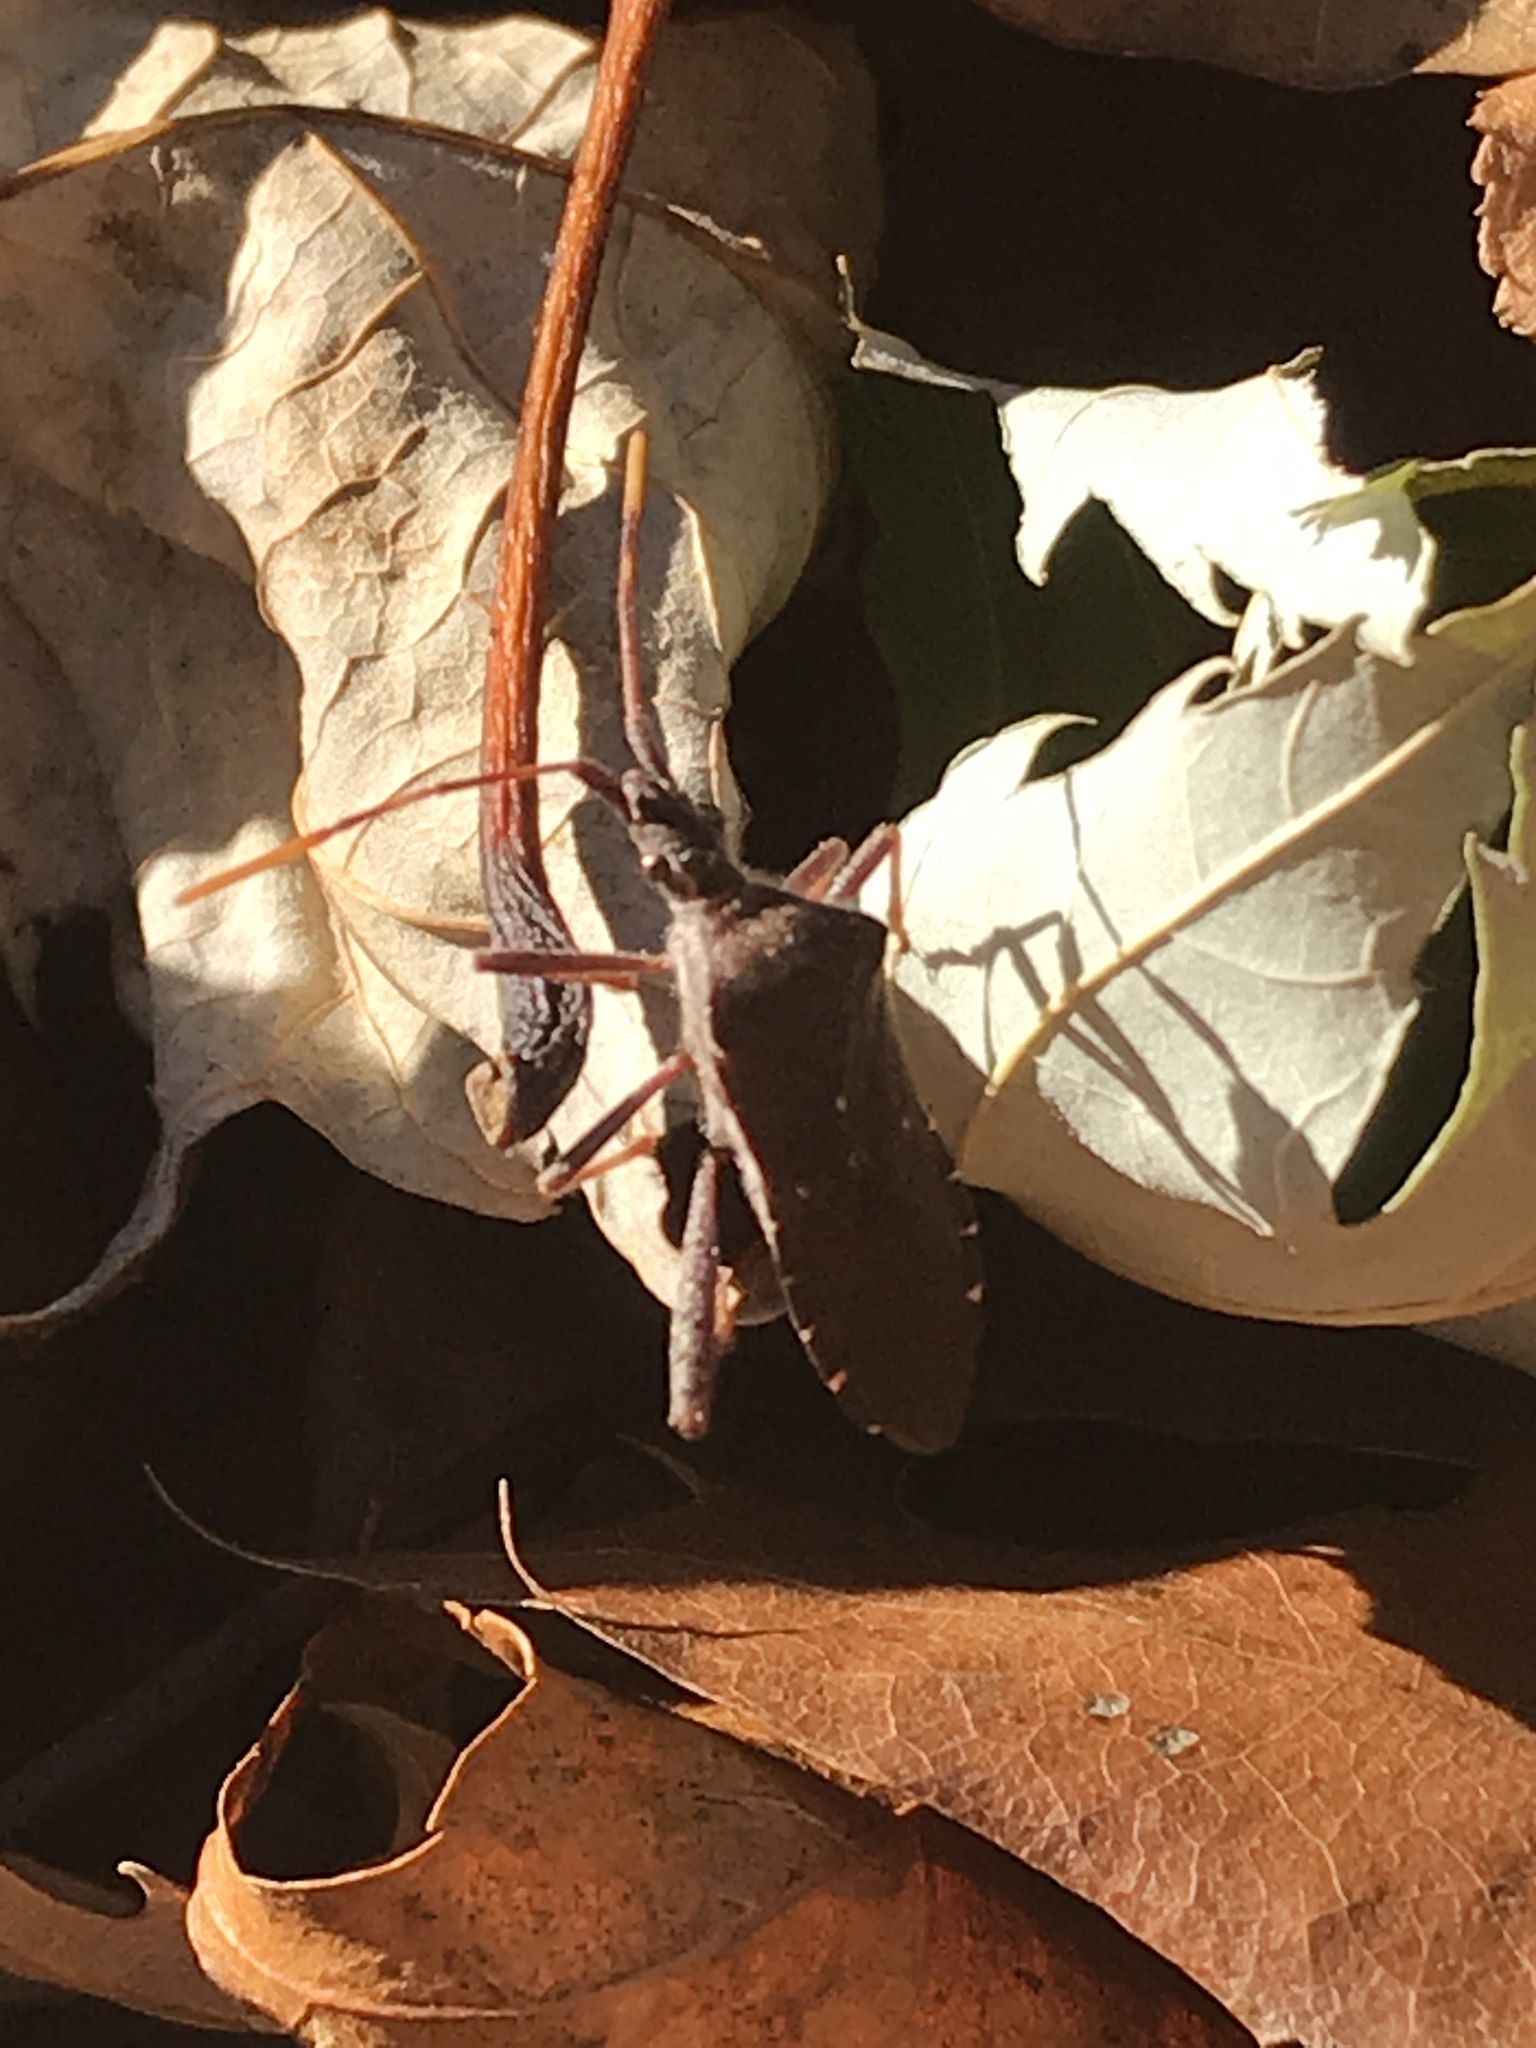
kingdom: Animalia
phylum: Arthropoda
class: Insecta
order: Hemiptera
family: Coreidae
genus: Leptoglossus
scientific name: Leptoglossus oppositus
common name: Northern leaf-footed bug
